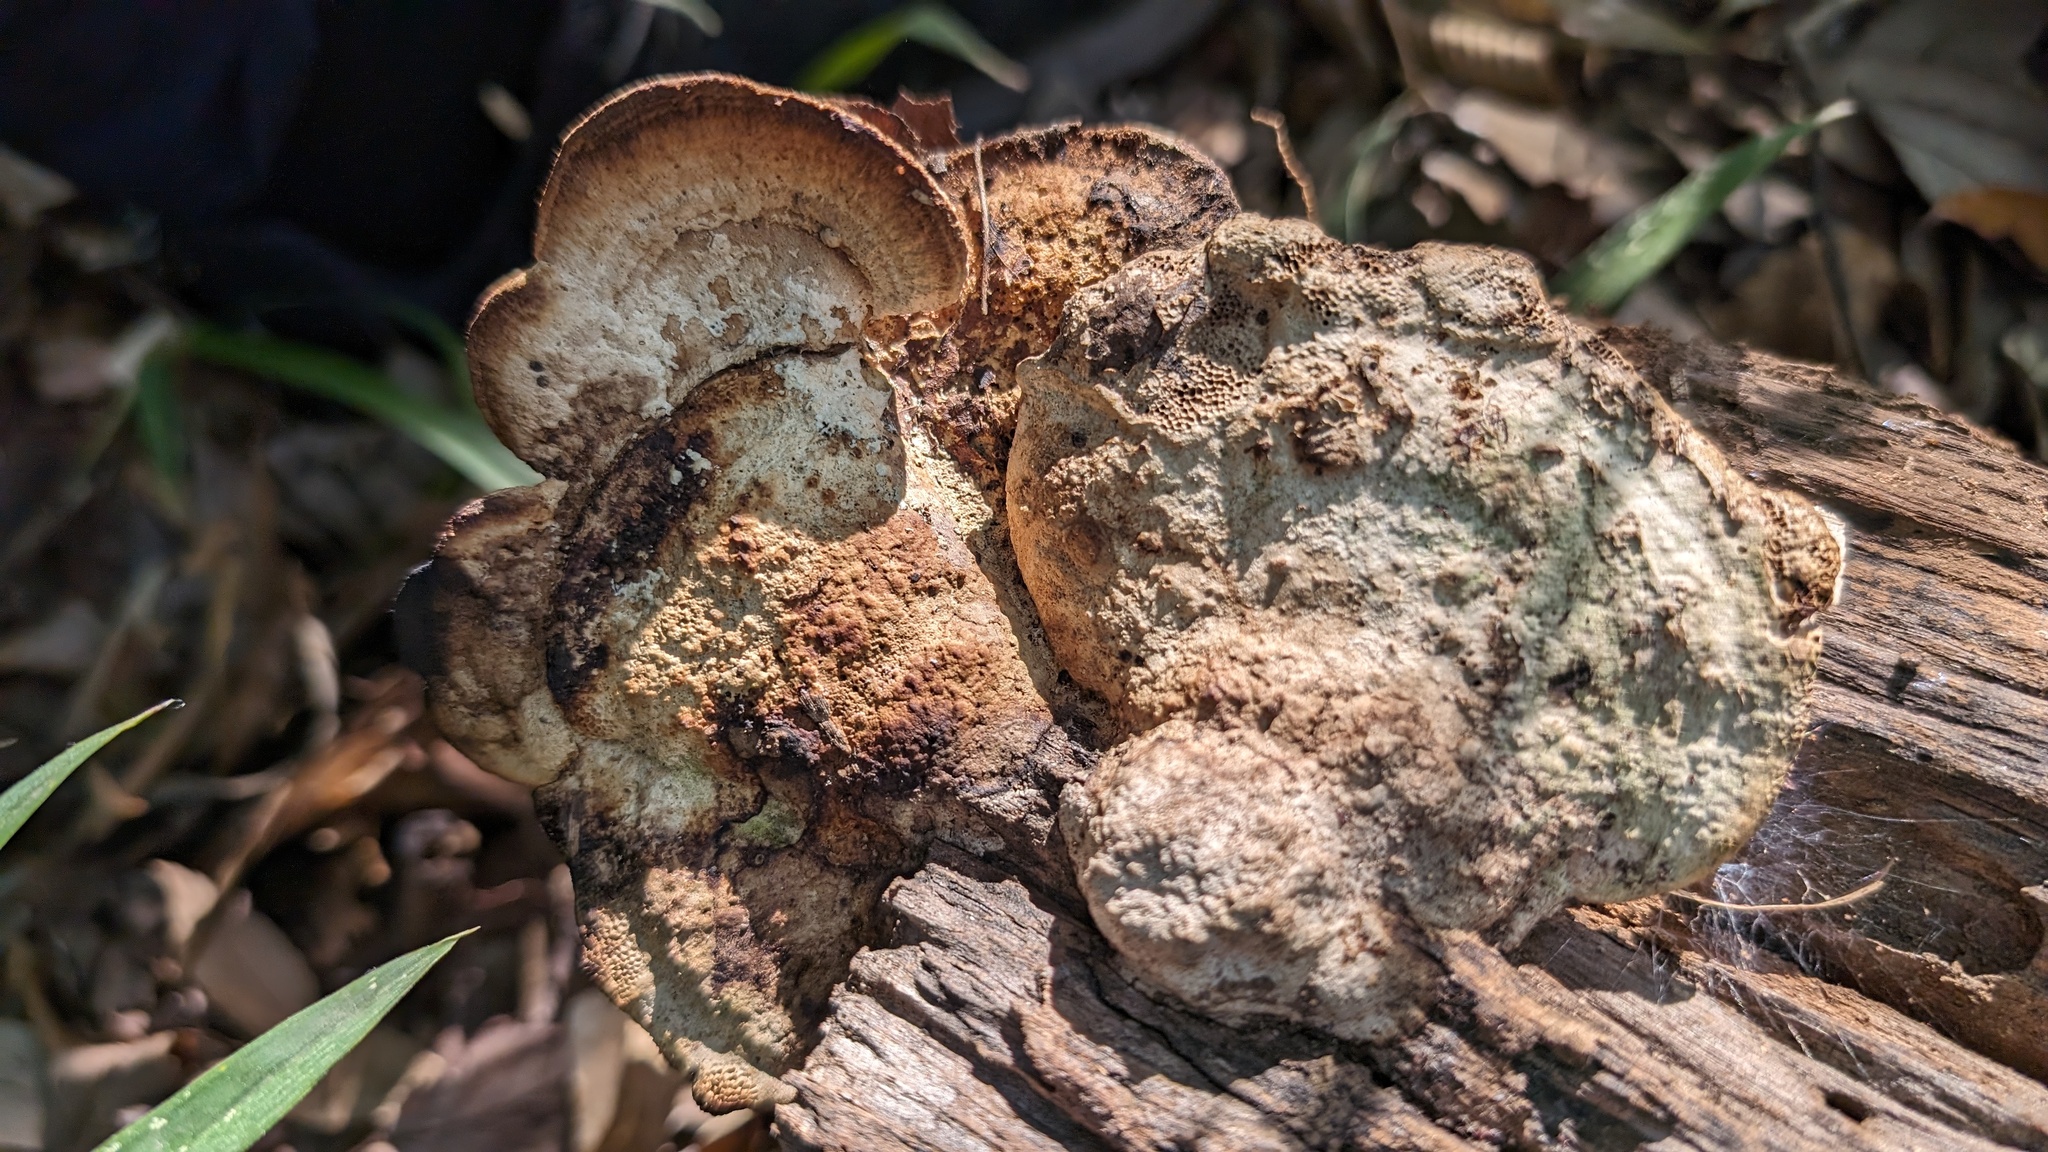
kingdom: Fungi
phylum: Basidiomycota
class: Agaricomycetes
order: Polyporales
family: Fomitopsidaceae
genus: Fomitopsis
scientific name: Fomitopsis
